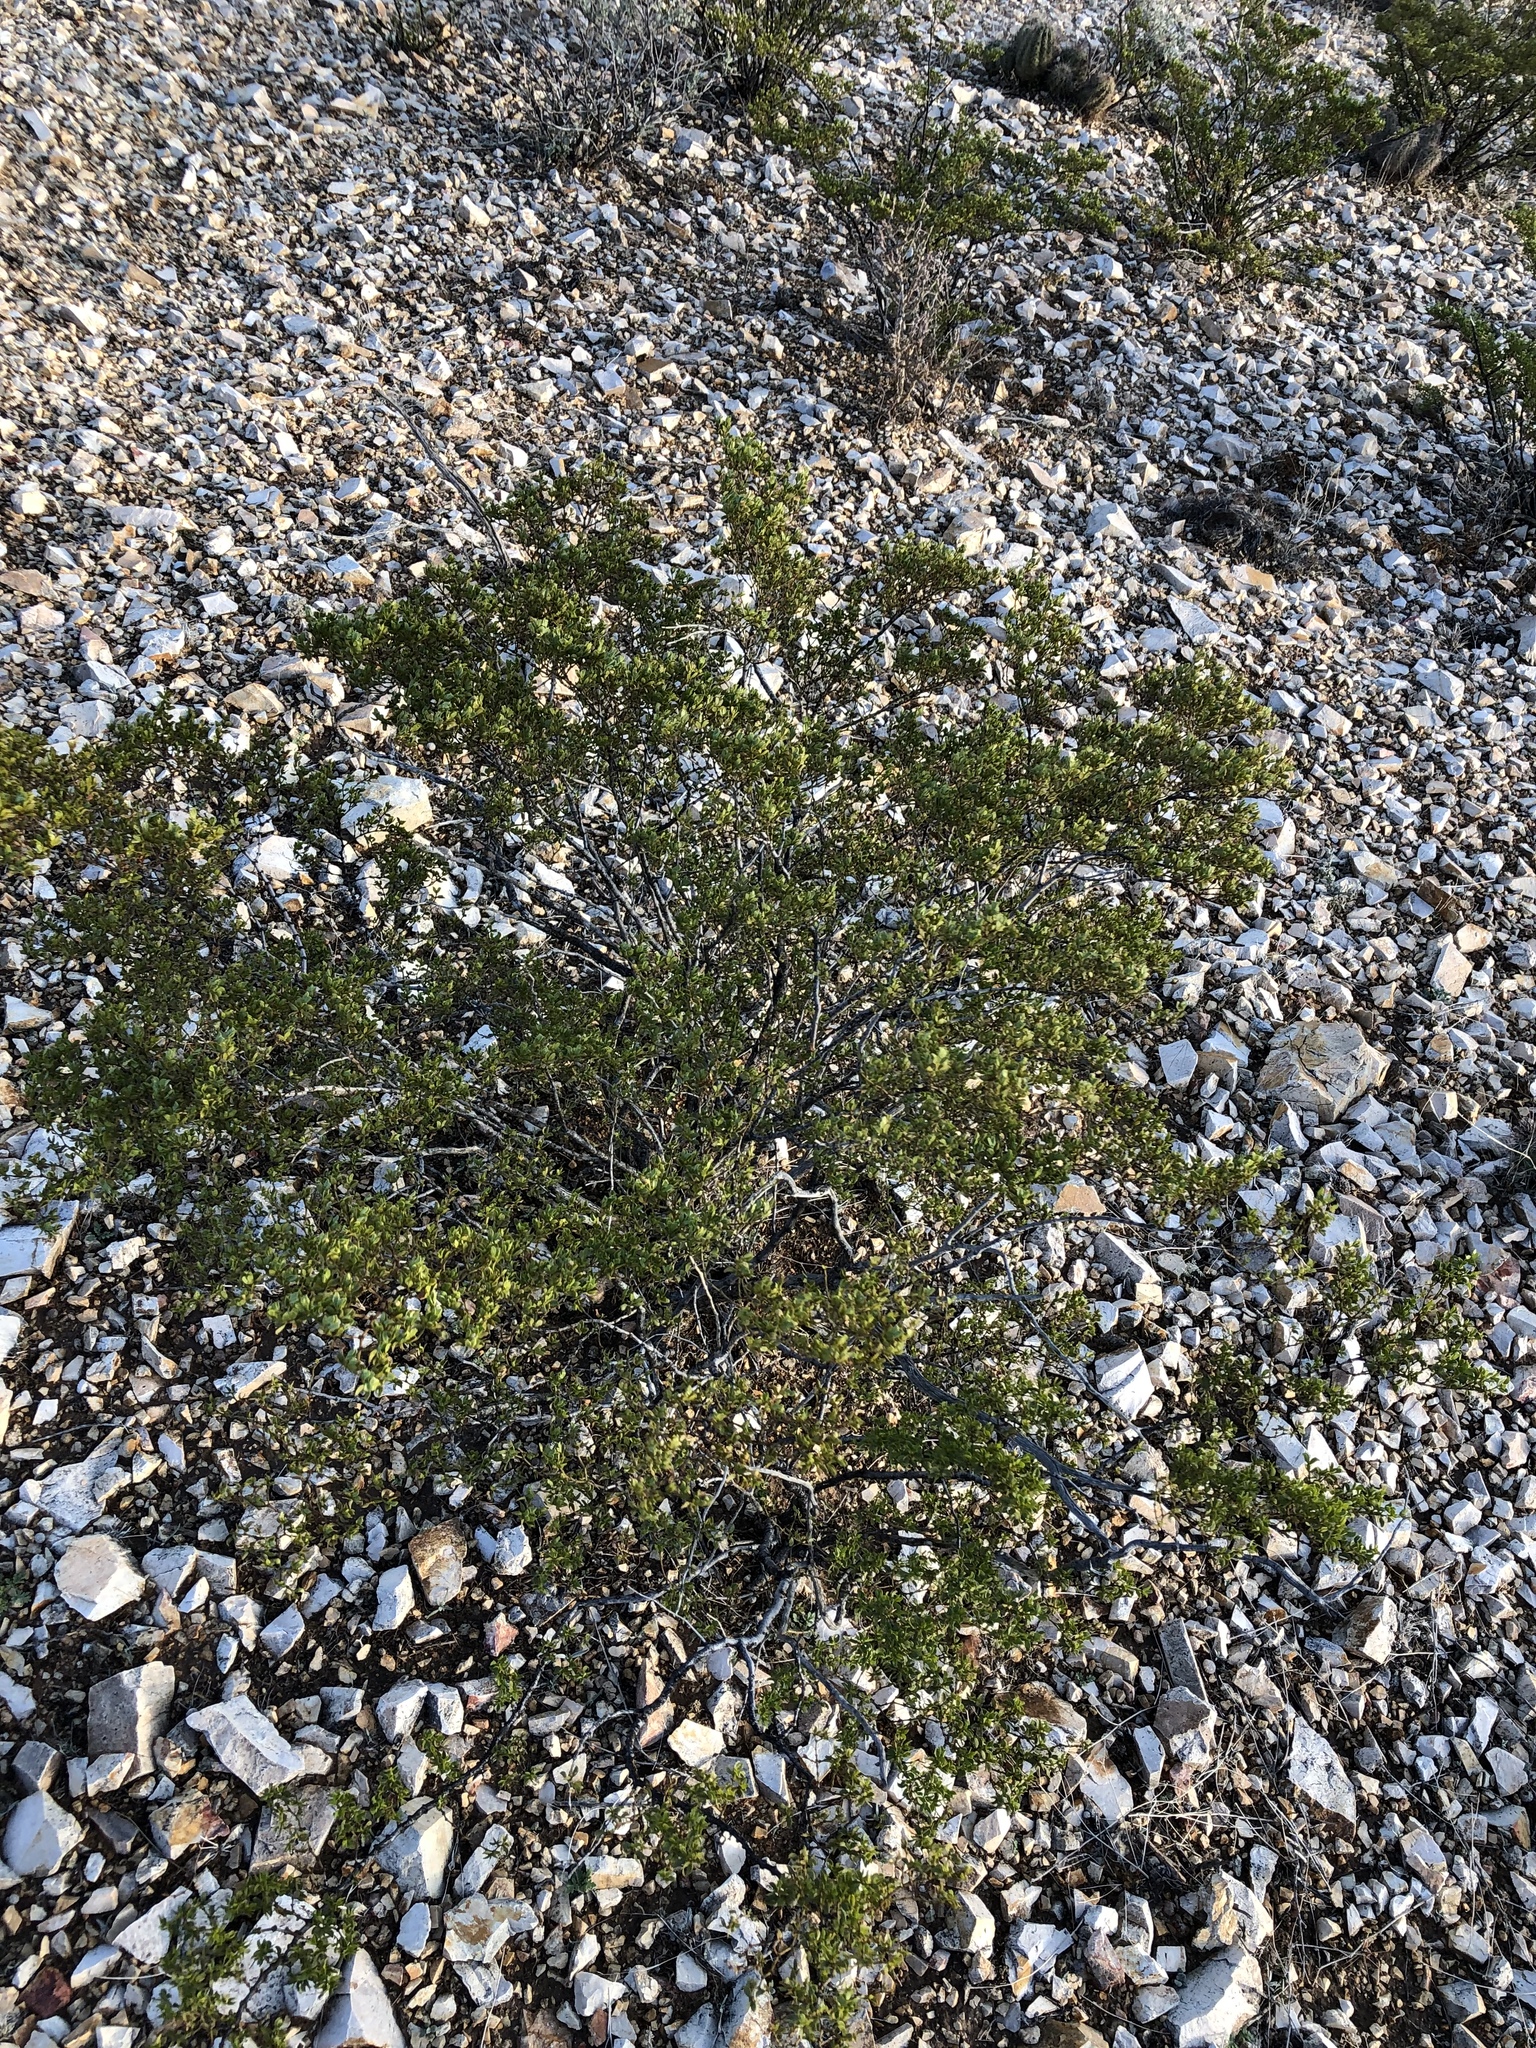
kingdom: Plantae
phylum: Tracheophyta
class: Magnoliopsida
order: Zygophyllales
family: Zygophyllaceae
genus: Larrea
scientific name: Larrea tridentata
